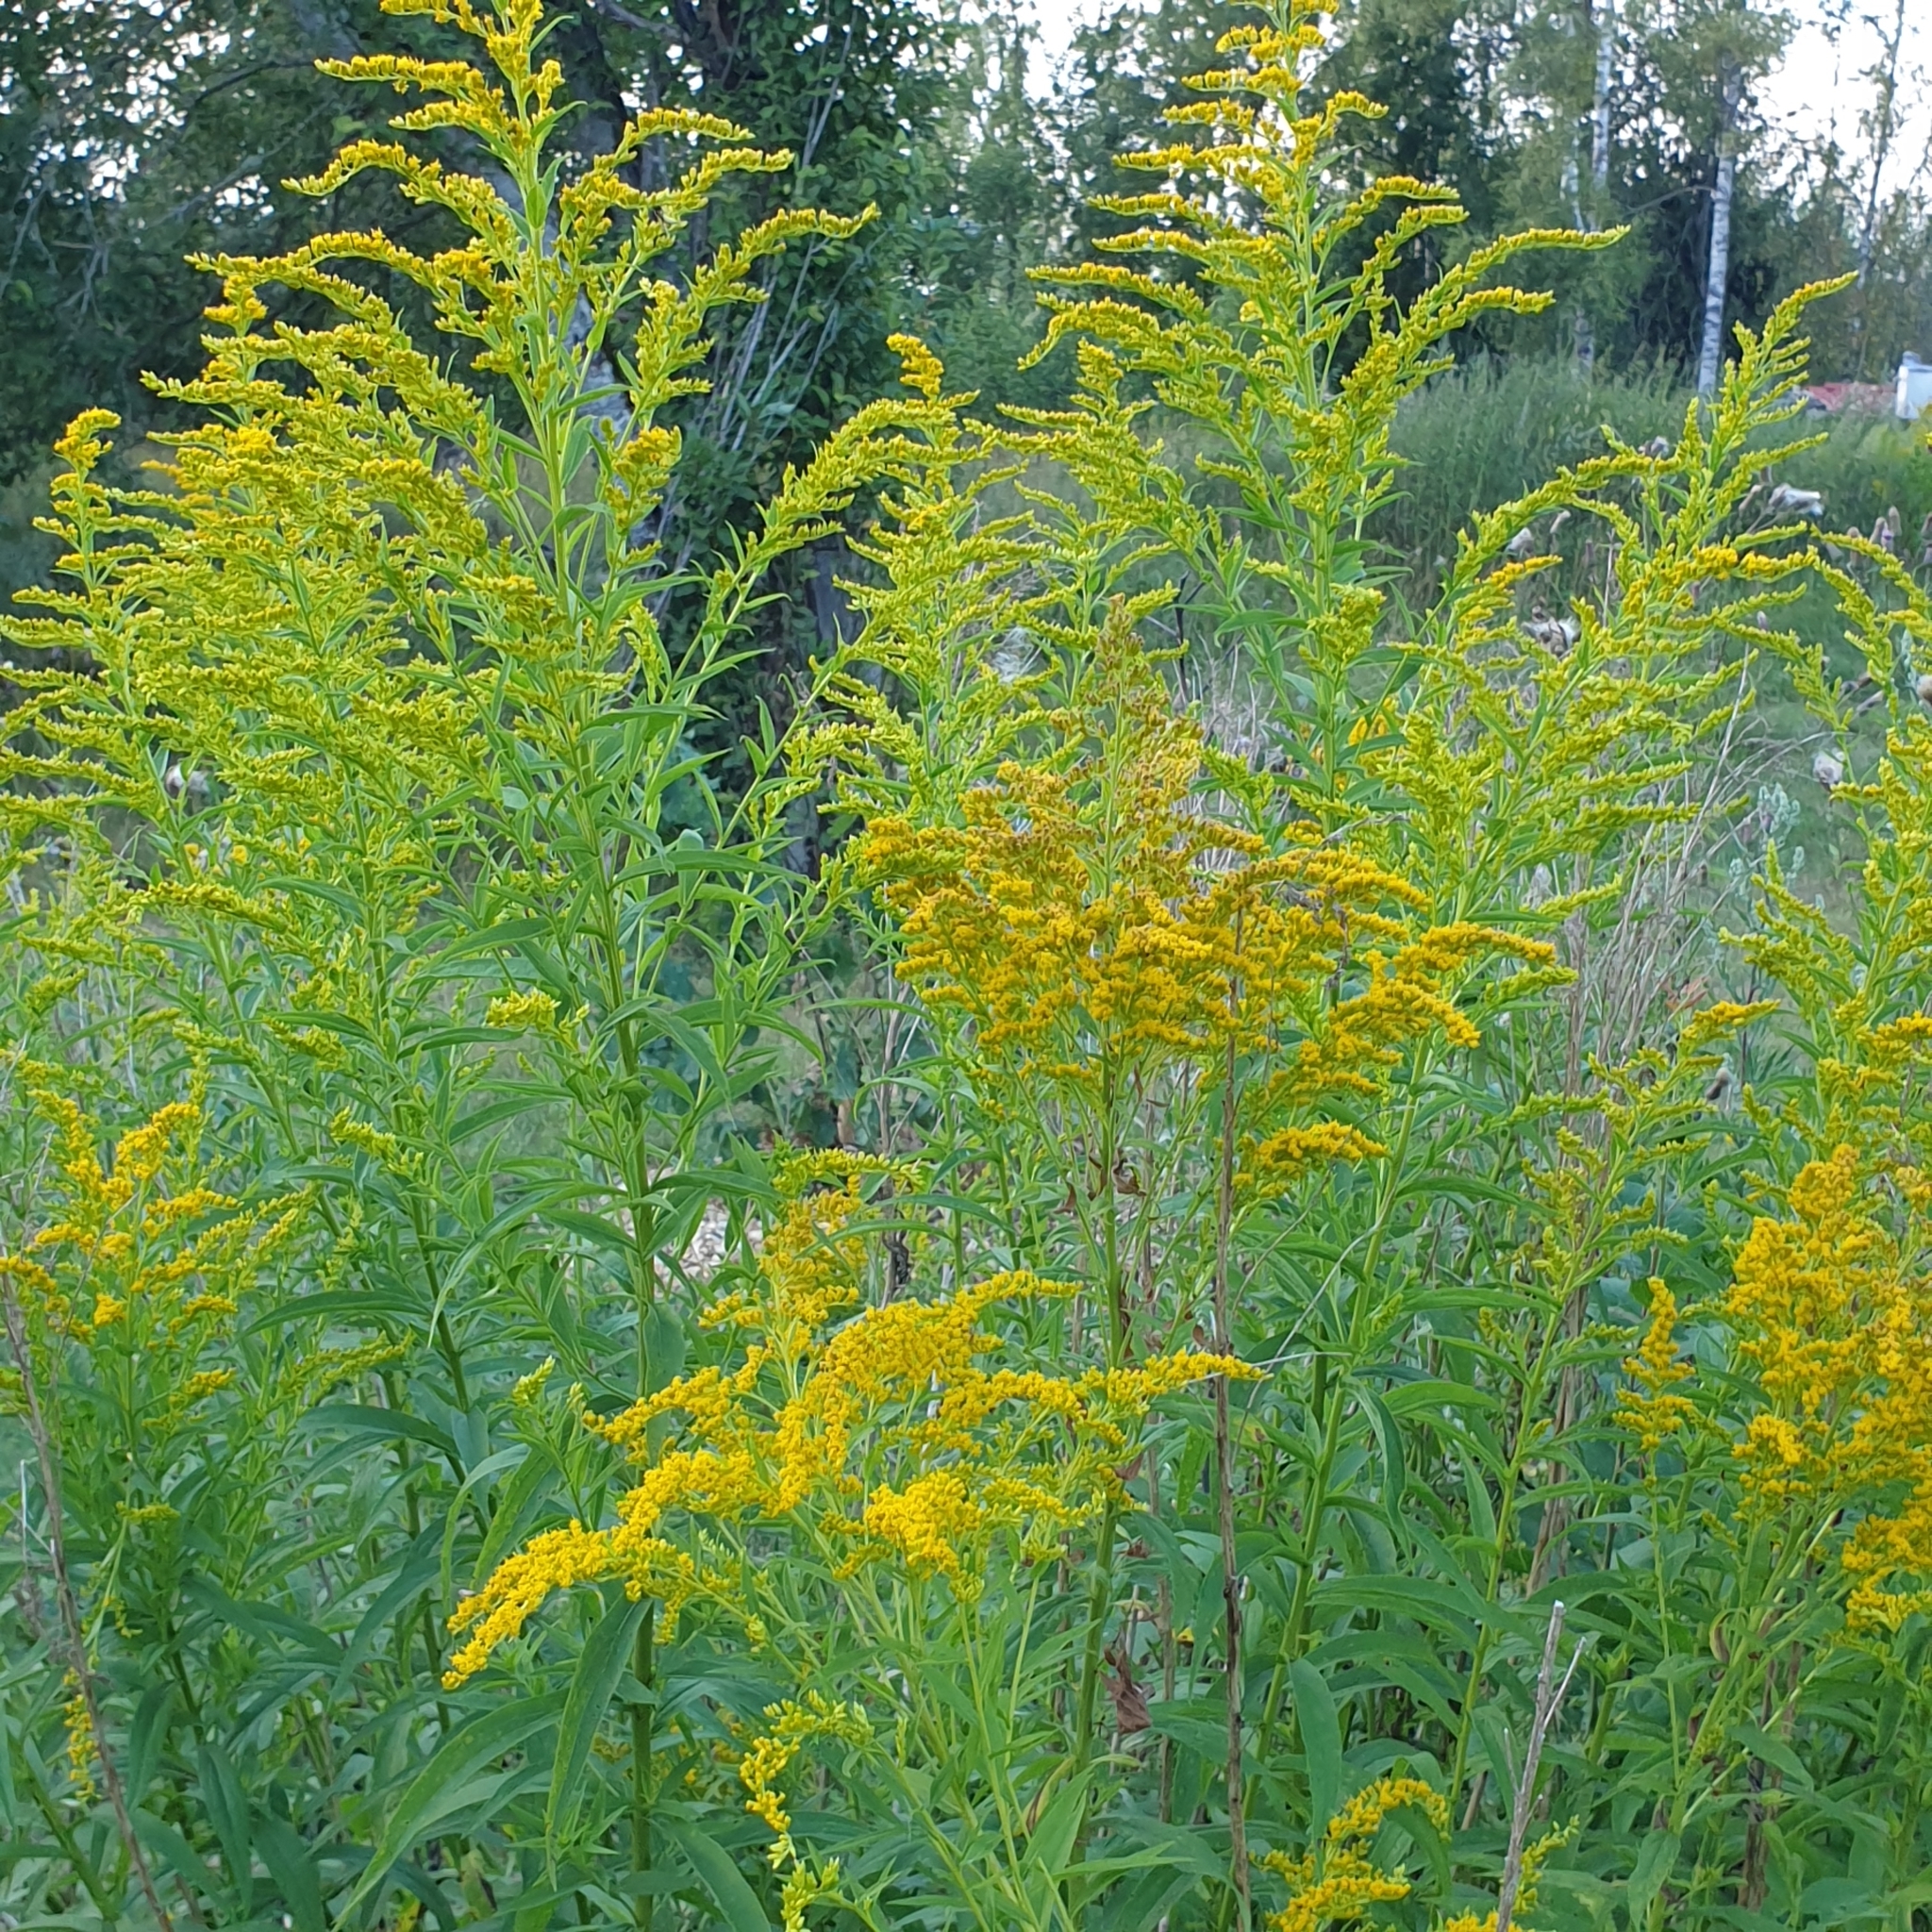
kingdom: Plantae
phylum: Tracheophyta
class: Magnoliopsida
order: Asterales
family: Asteraceae
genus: Solidago
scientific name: Solidago canadensis
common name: Canada goldenrod
